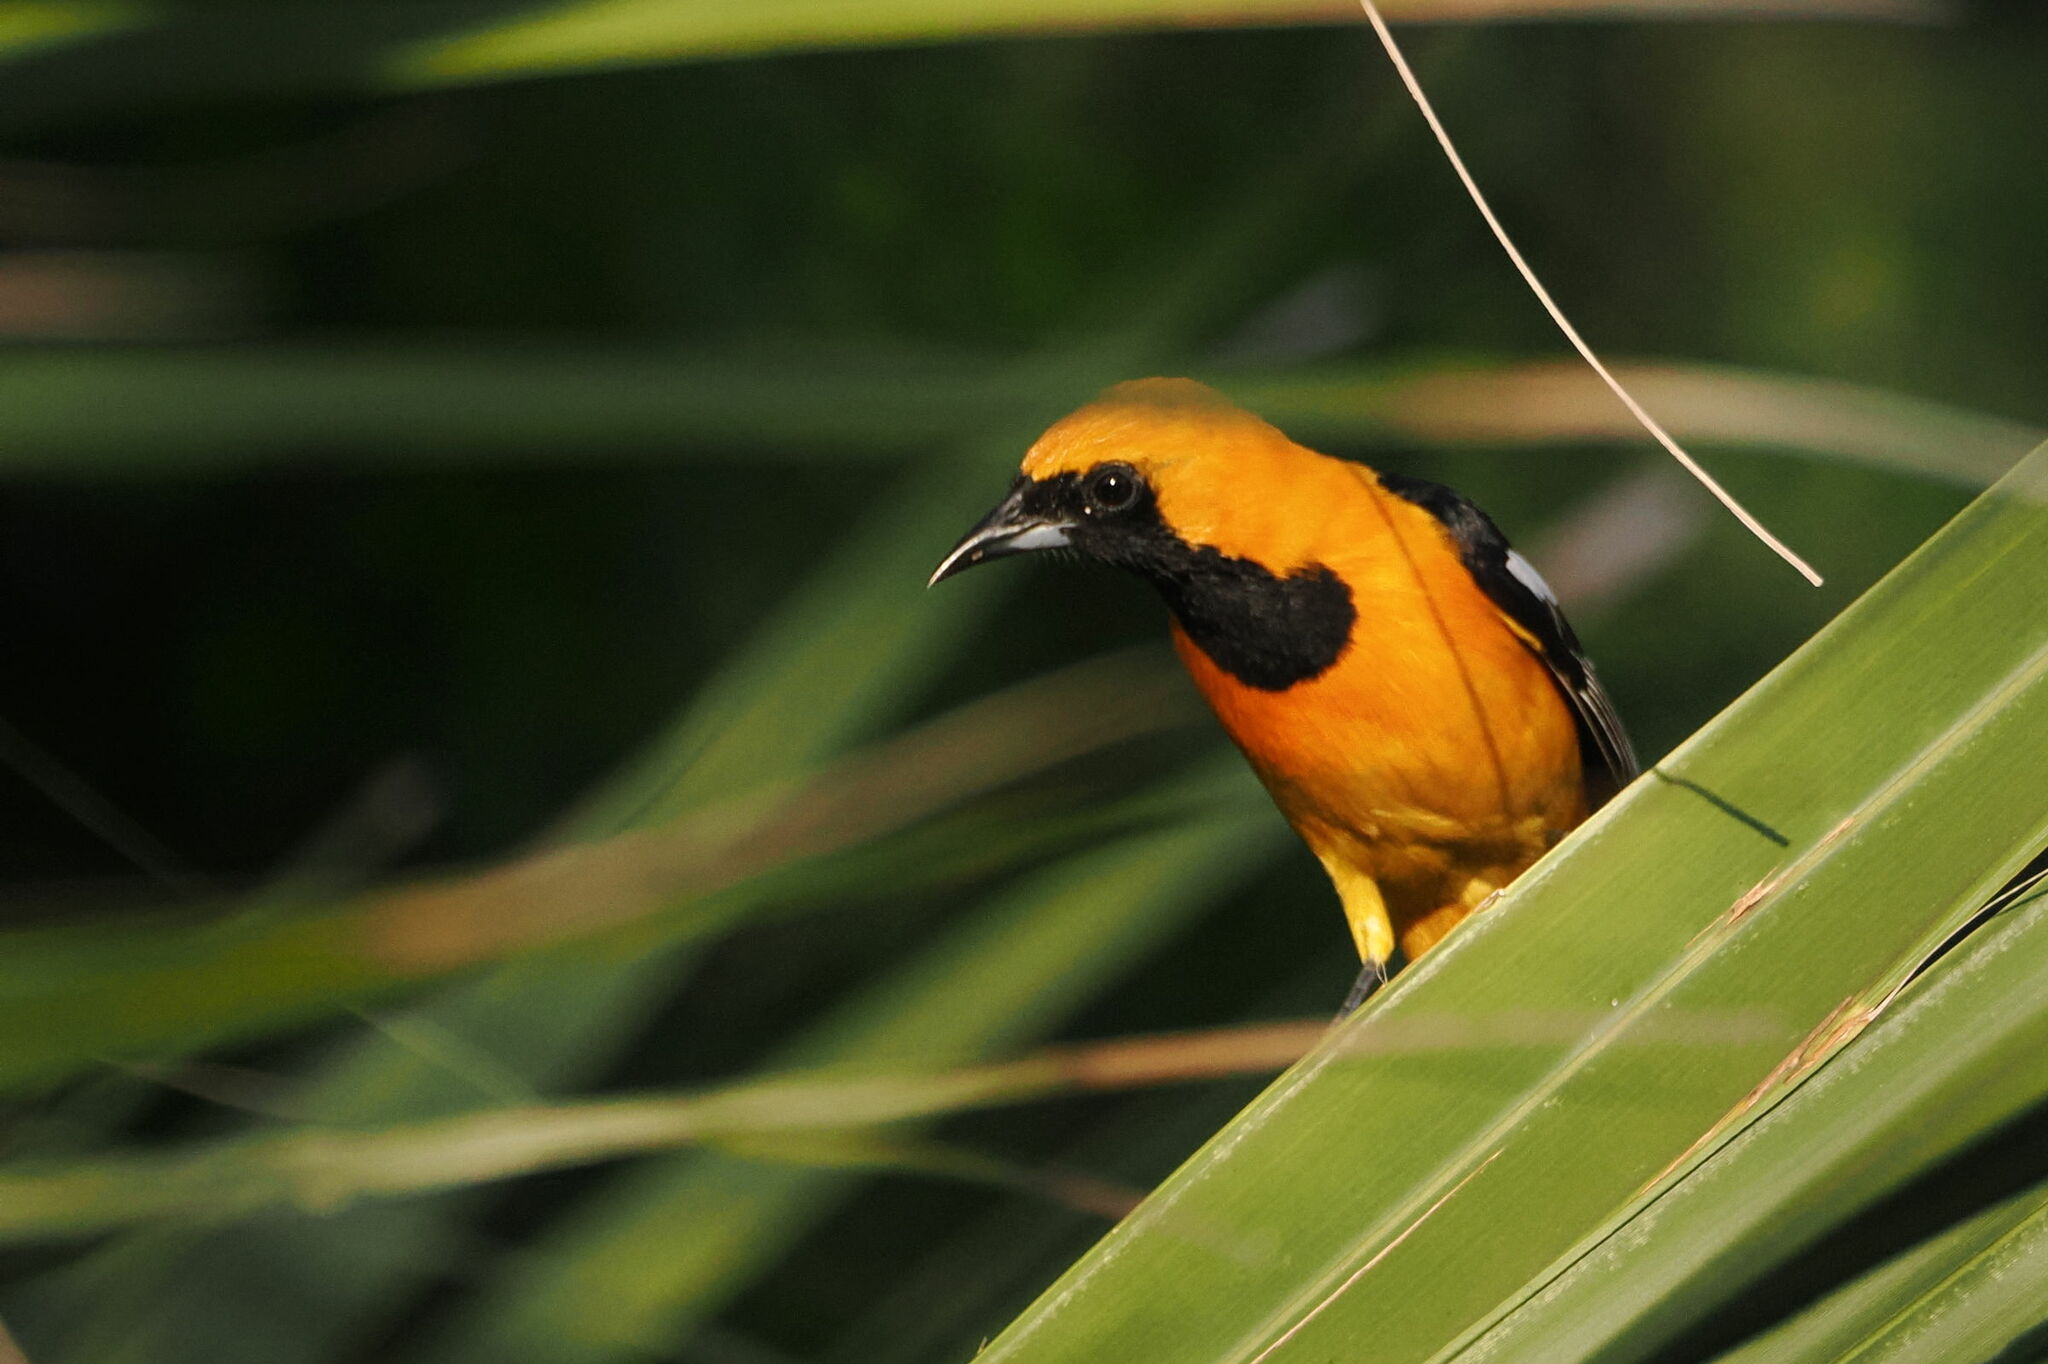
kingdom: Animalia
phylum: Chordata
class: Aves
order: Passeriformes
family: Icteridae
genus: Icterus
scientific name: Icterus cucullatus
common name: Hooded oriole
